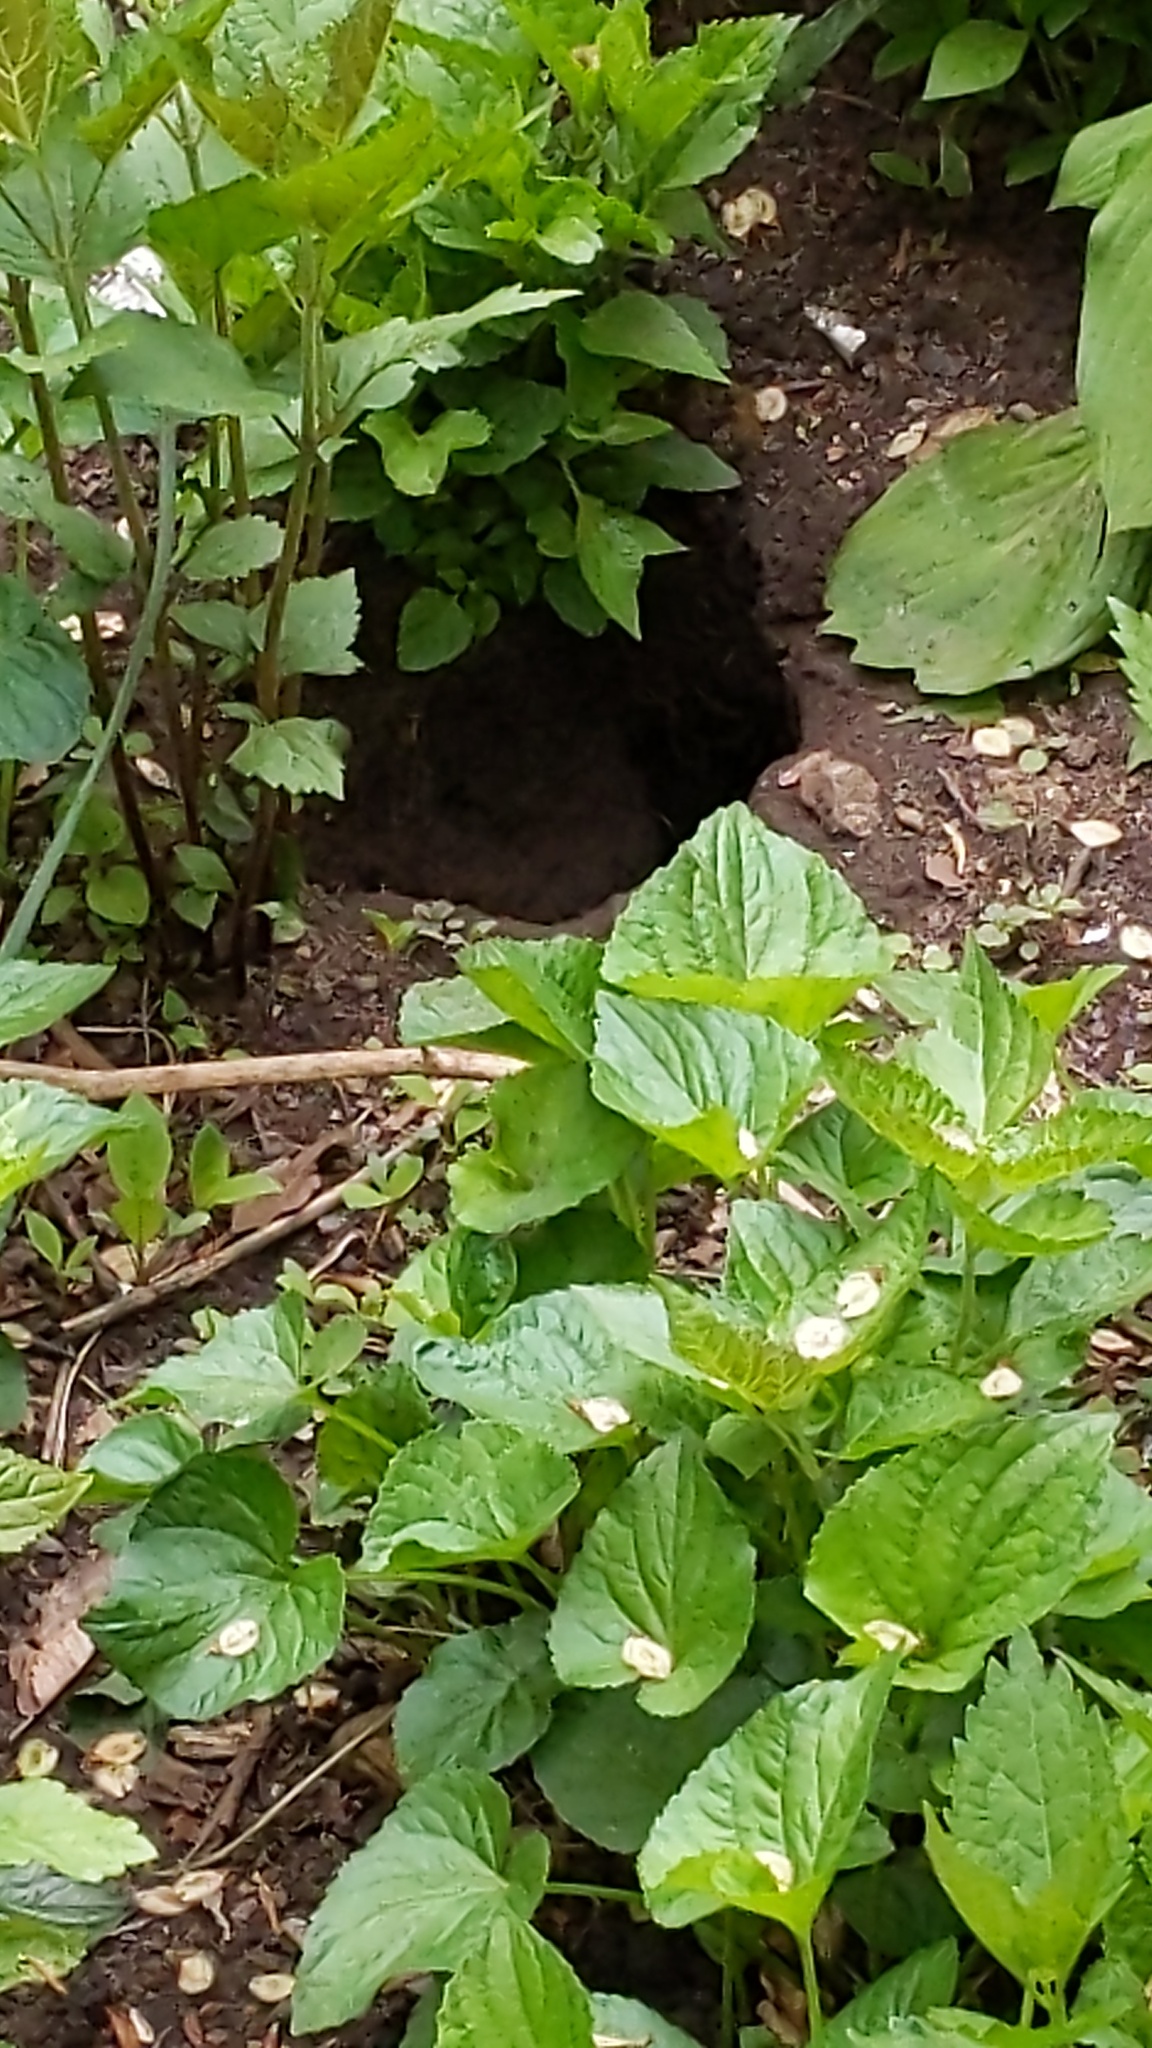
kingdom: Animalia
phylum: Chordata
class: Mammalia
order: Rodentia
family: Muridae
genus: Rattus
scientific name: Rattus norvegicus
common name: Brown rat
